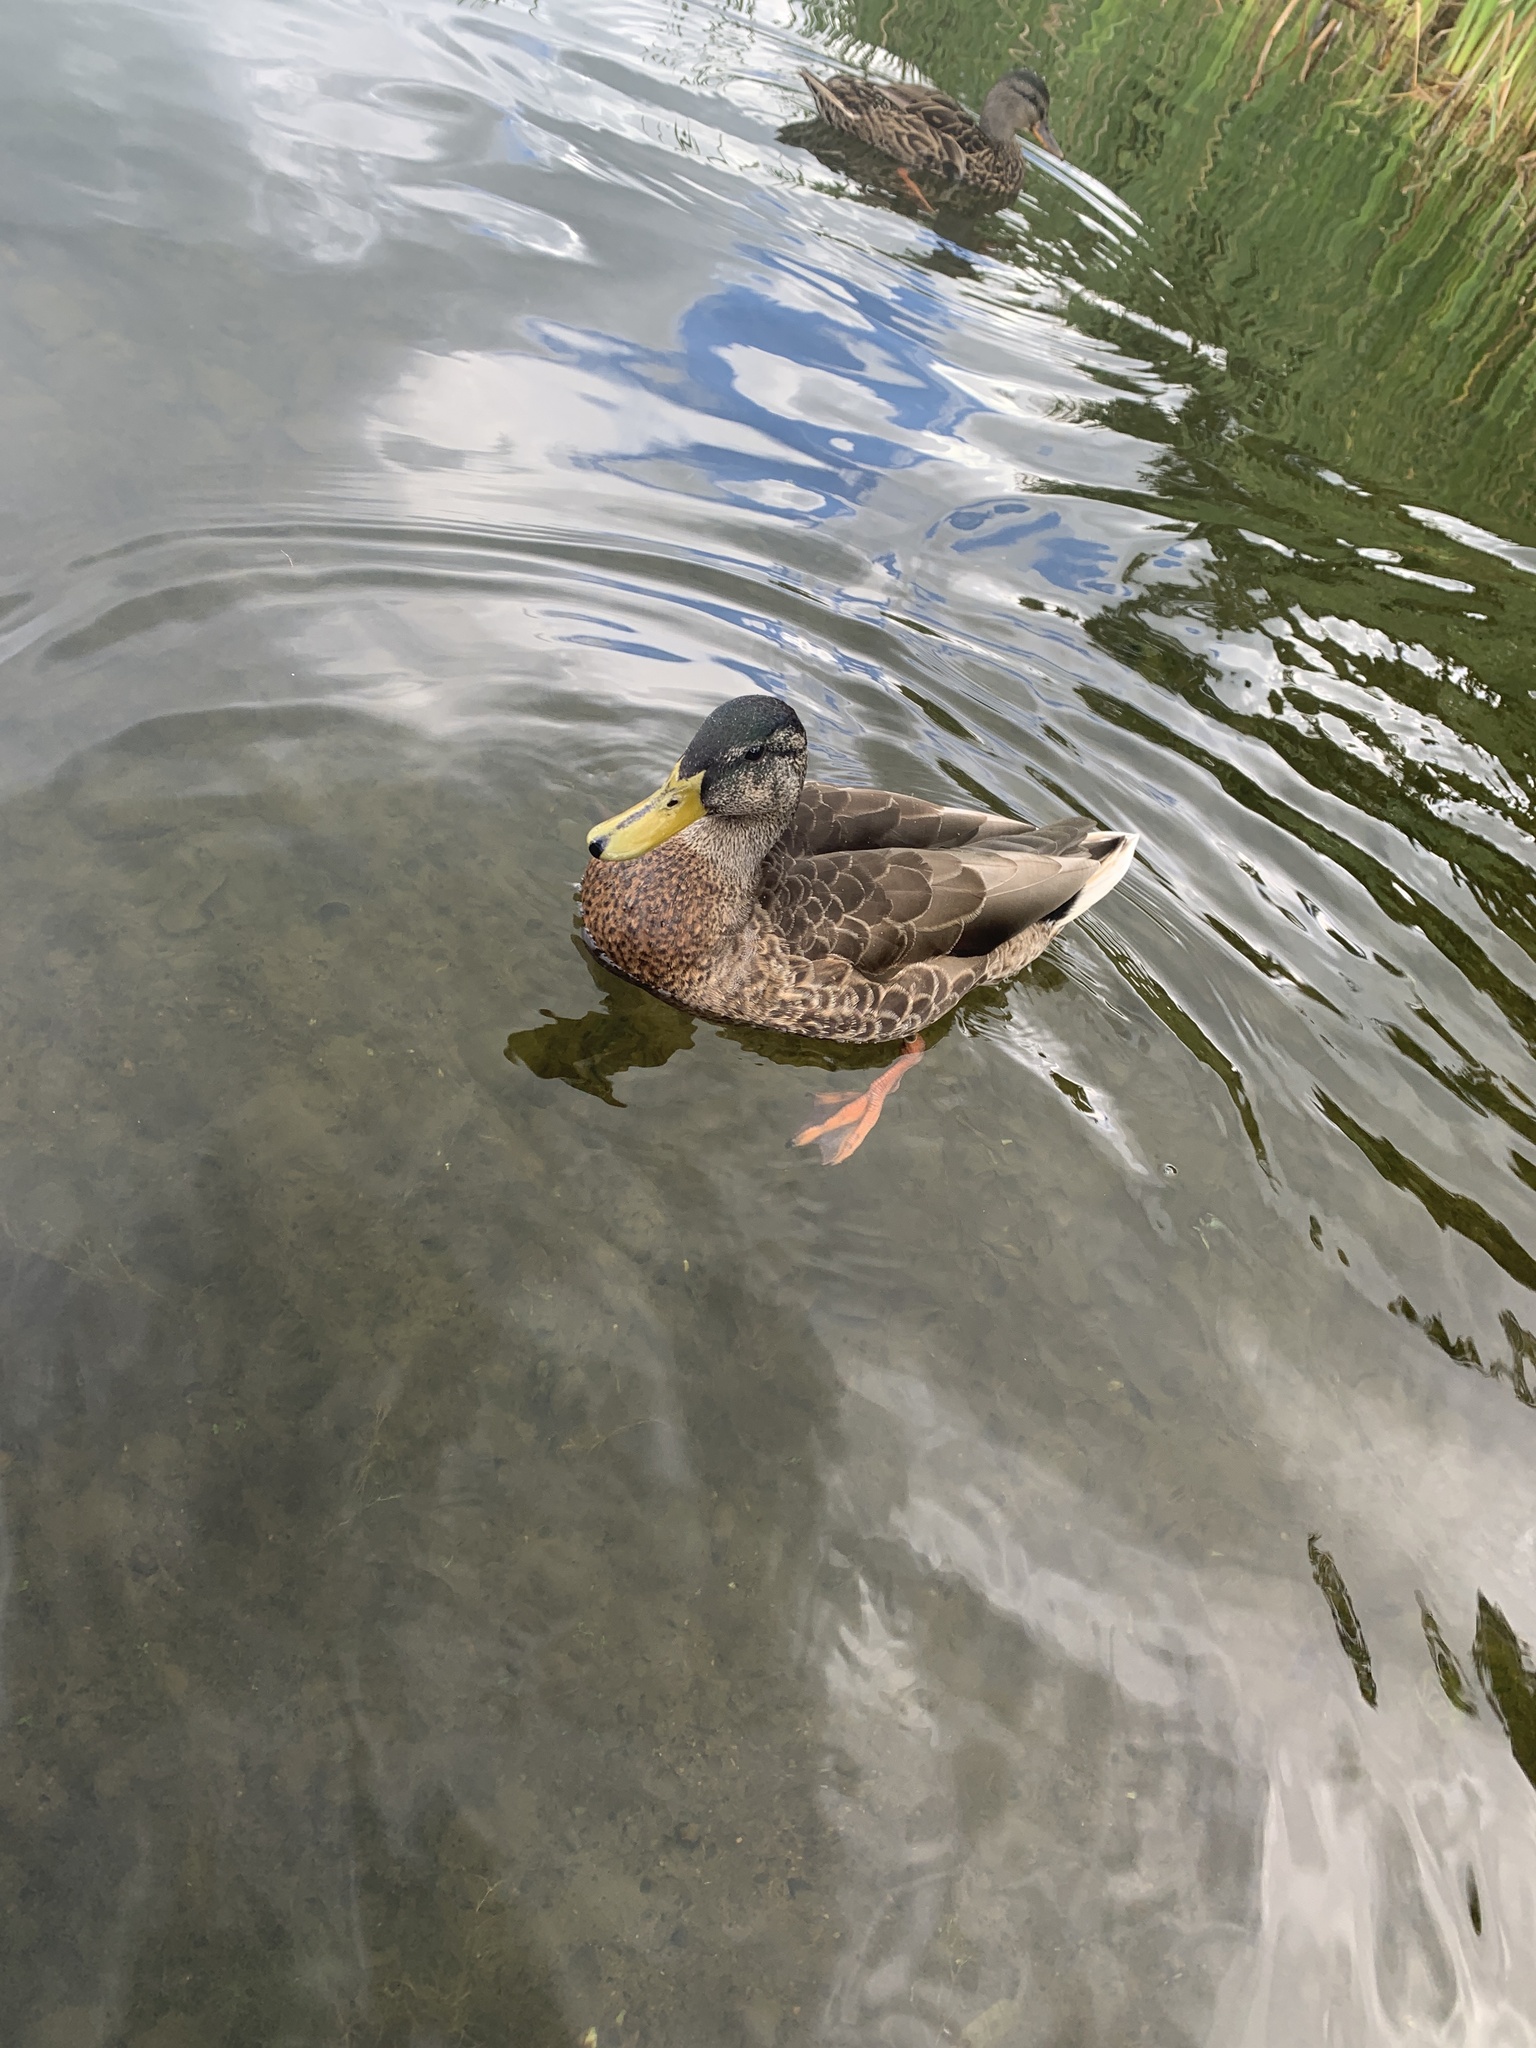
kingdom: Animalia
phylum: Chordata
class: Aves
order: Anseriformes
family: Anatidae
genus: Anas
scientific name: Anas platyrhynchos
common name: Mallard
